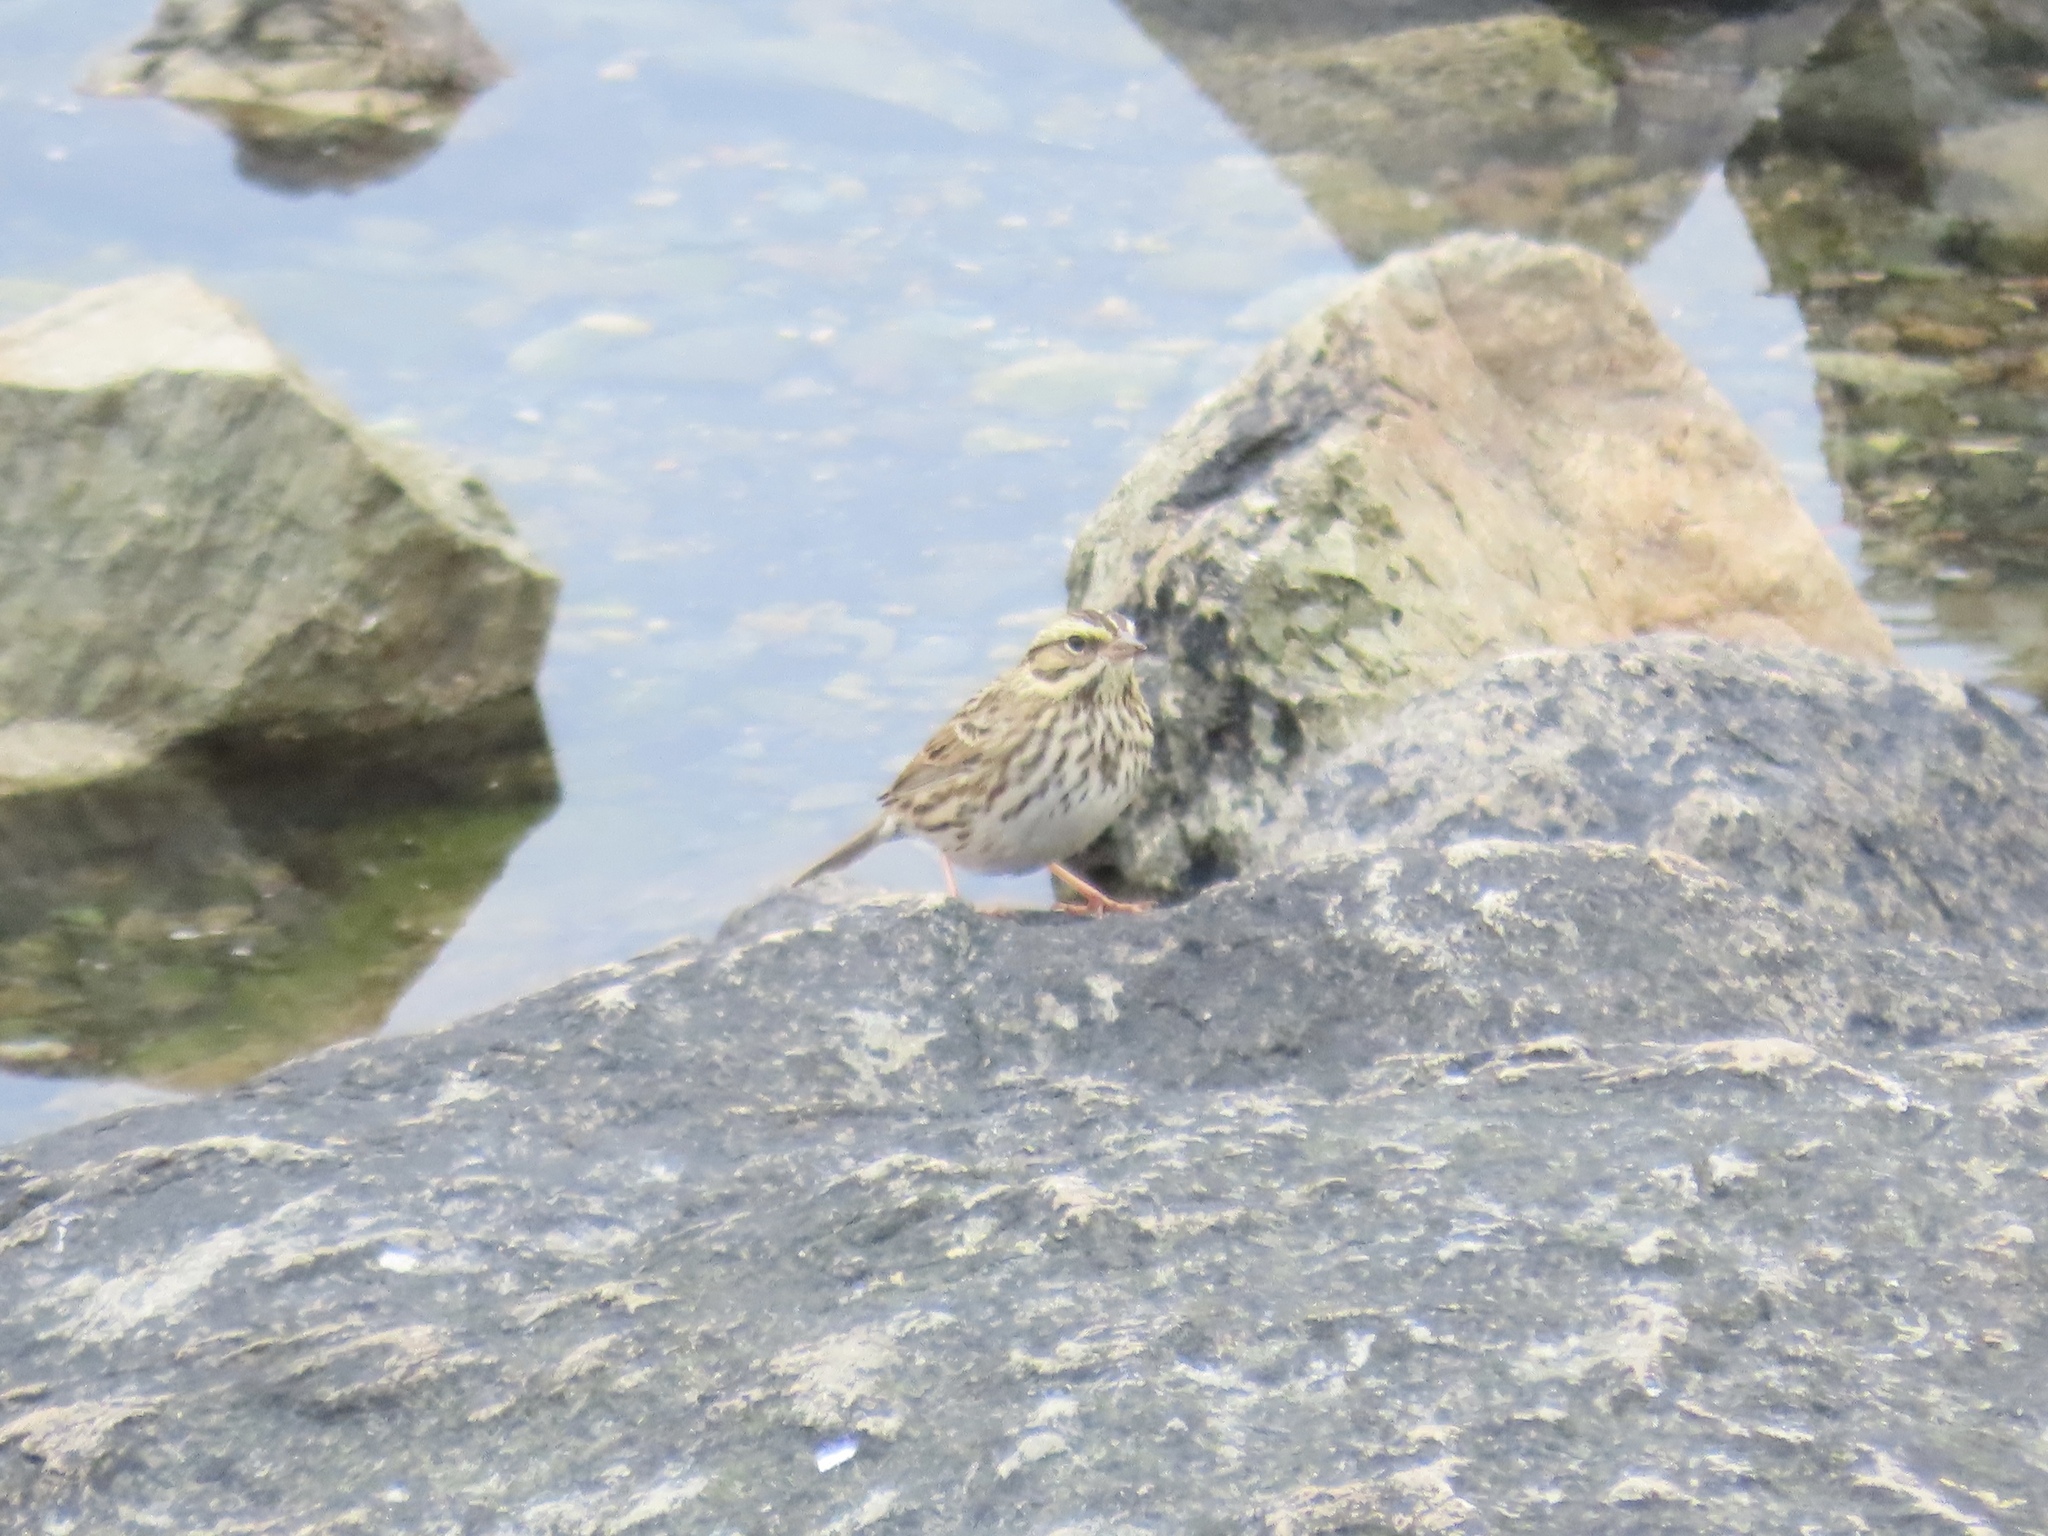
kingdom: Animalia
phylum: Chordata
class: Aves
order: Passeriformes
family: Passerellidae
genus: Passerculus
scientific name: Passerculus sandwichensis
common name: Savannah sparrow
